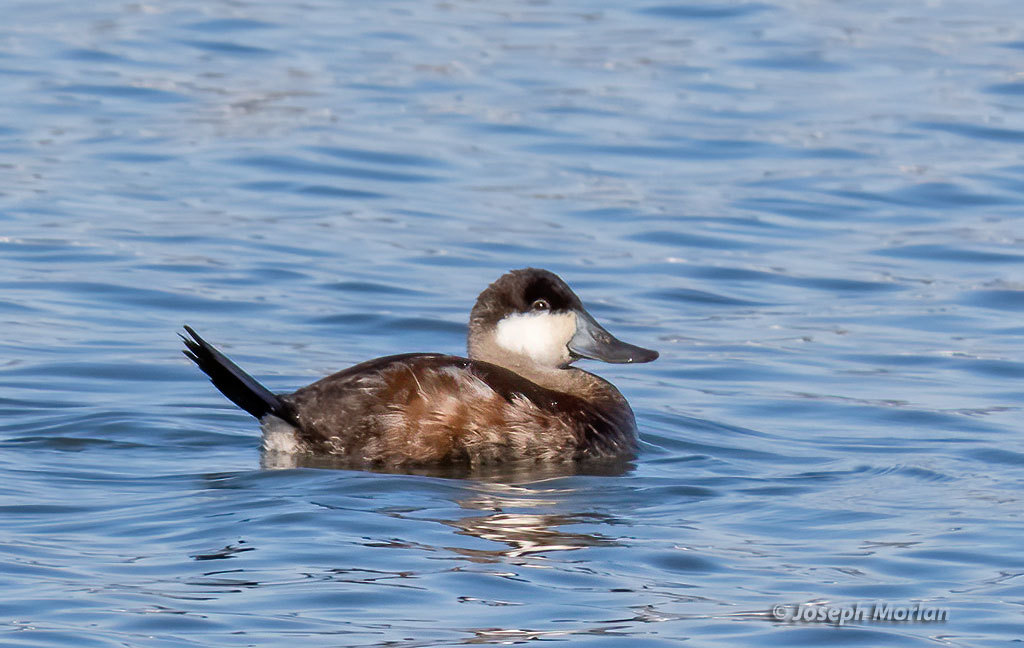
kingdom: Animalia
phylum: Chordata
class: Aves
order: Anseriformes
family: Anatidae
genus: Oxyura
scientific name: Oxyura jamaicensis
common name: Ruddy duck
